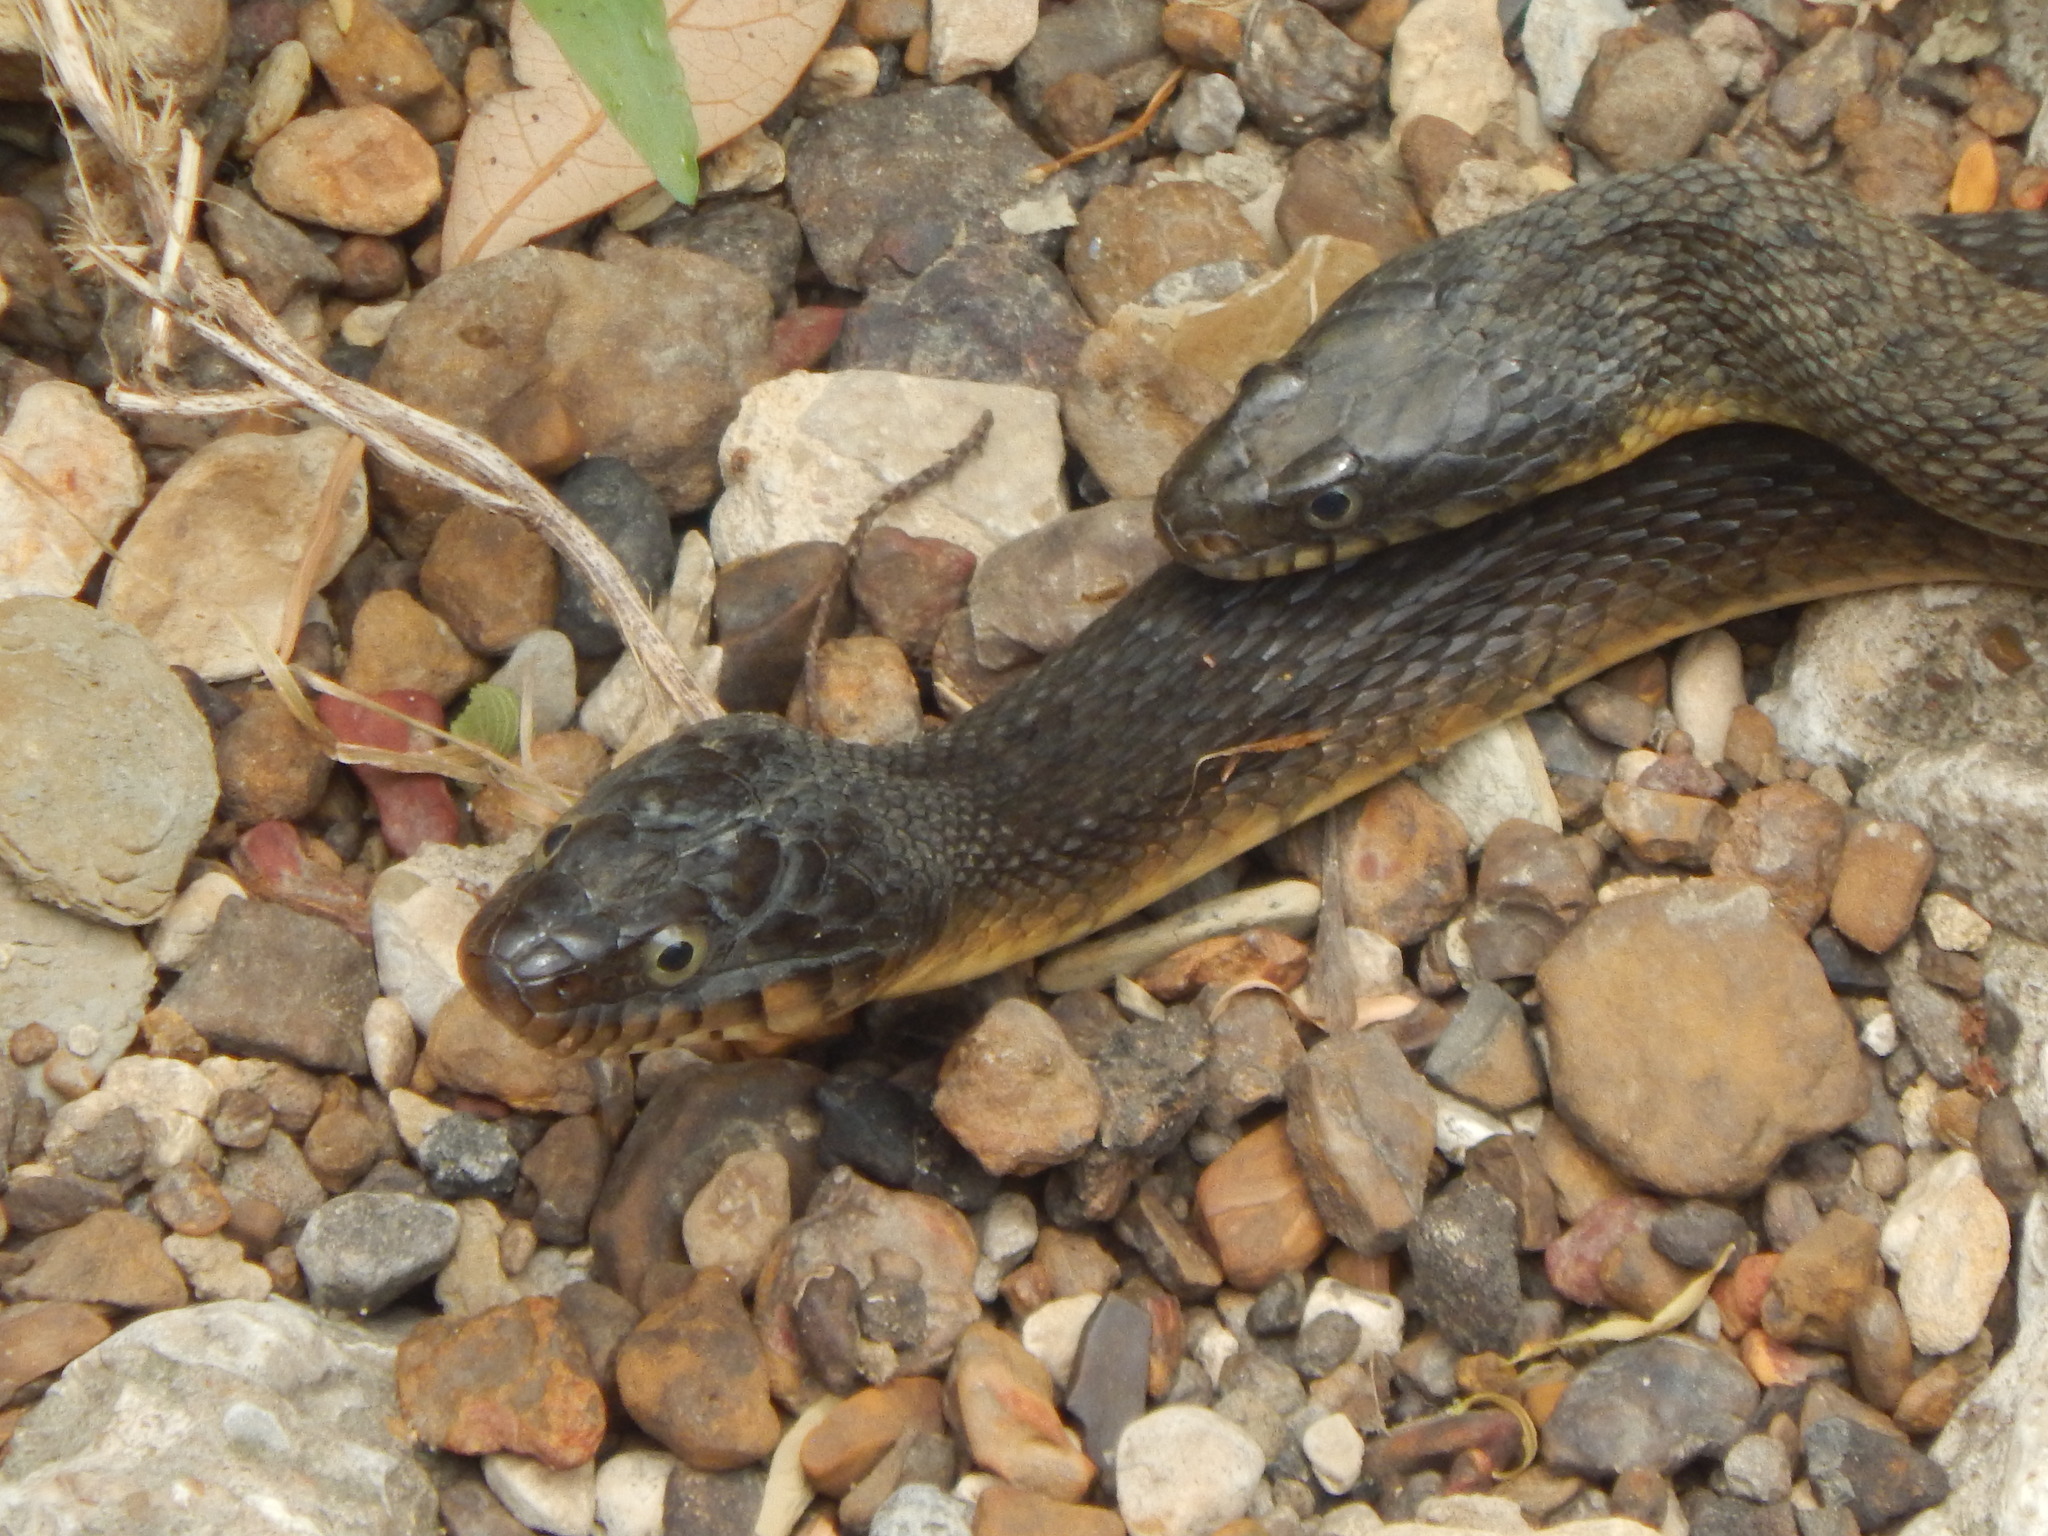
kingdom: Animalia
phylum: Chordata
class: Squamata
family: Colubridae
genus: Nerodia
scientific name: Nerodia erythrogaster
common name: Plainbelly water snake
